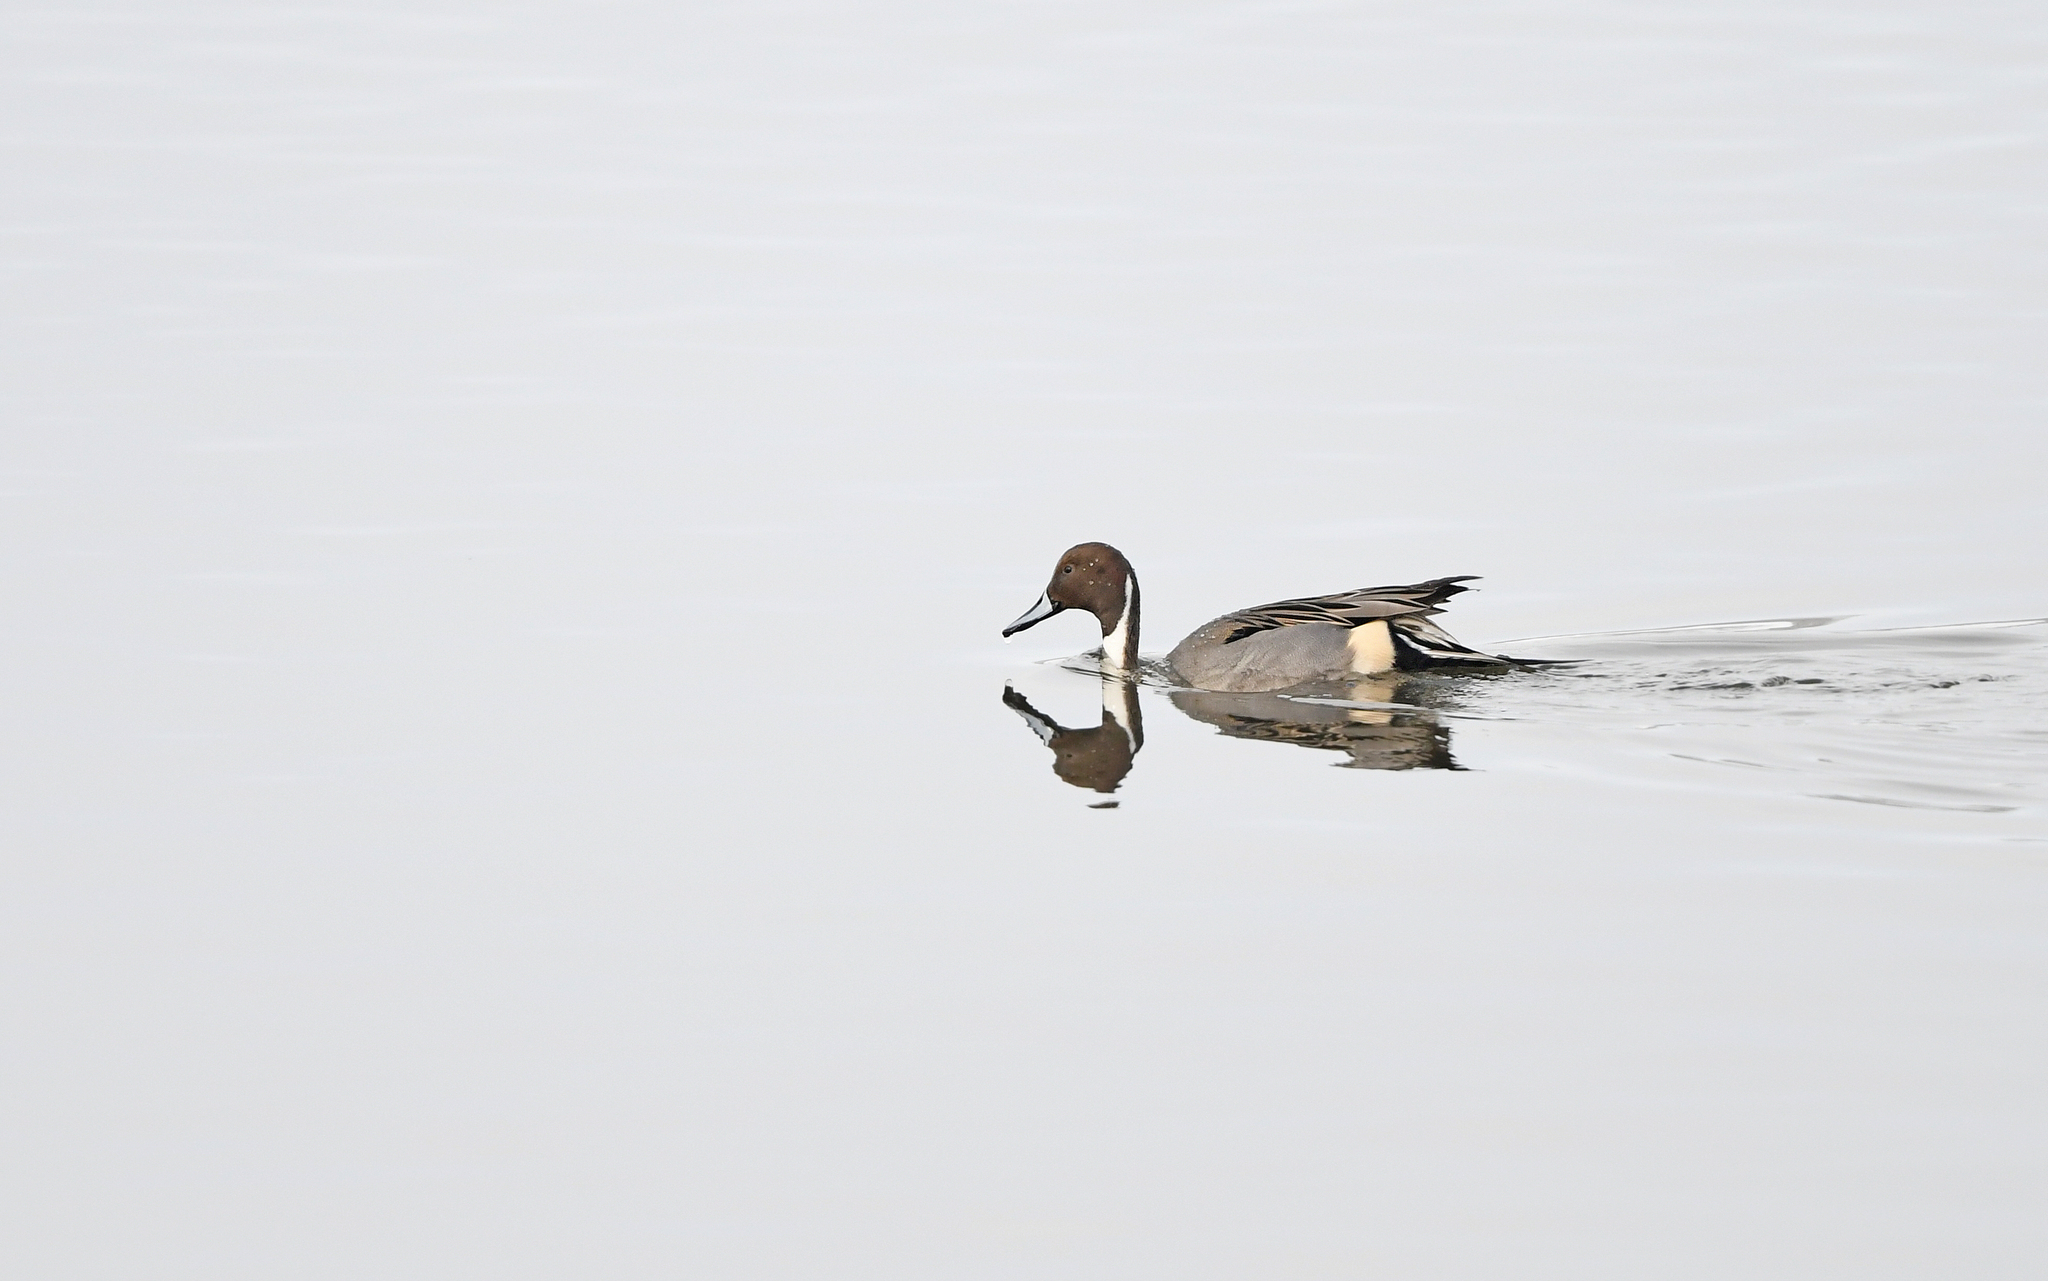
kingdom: Animalia
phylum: Chordata
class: Aves
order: Anseriformes
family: Anatidae
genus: Anas
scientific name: Anas acuta
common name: Northern pintail
